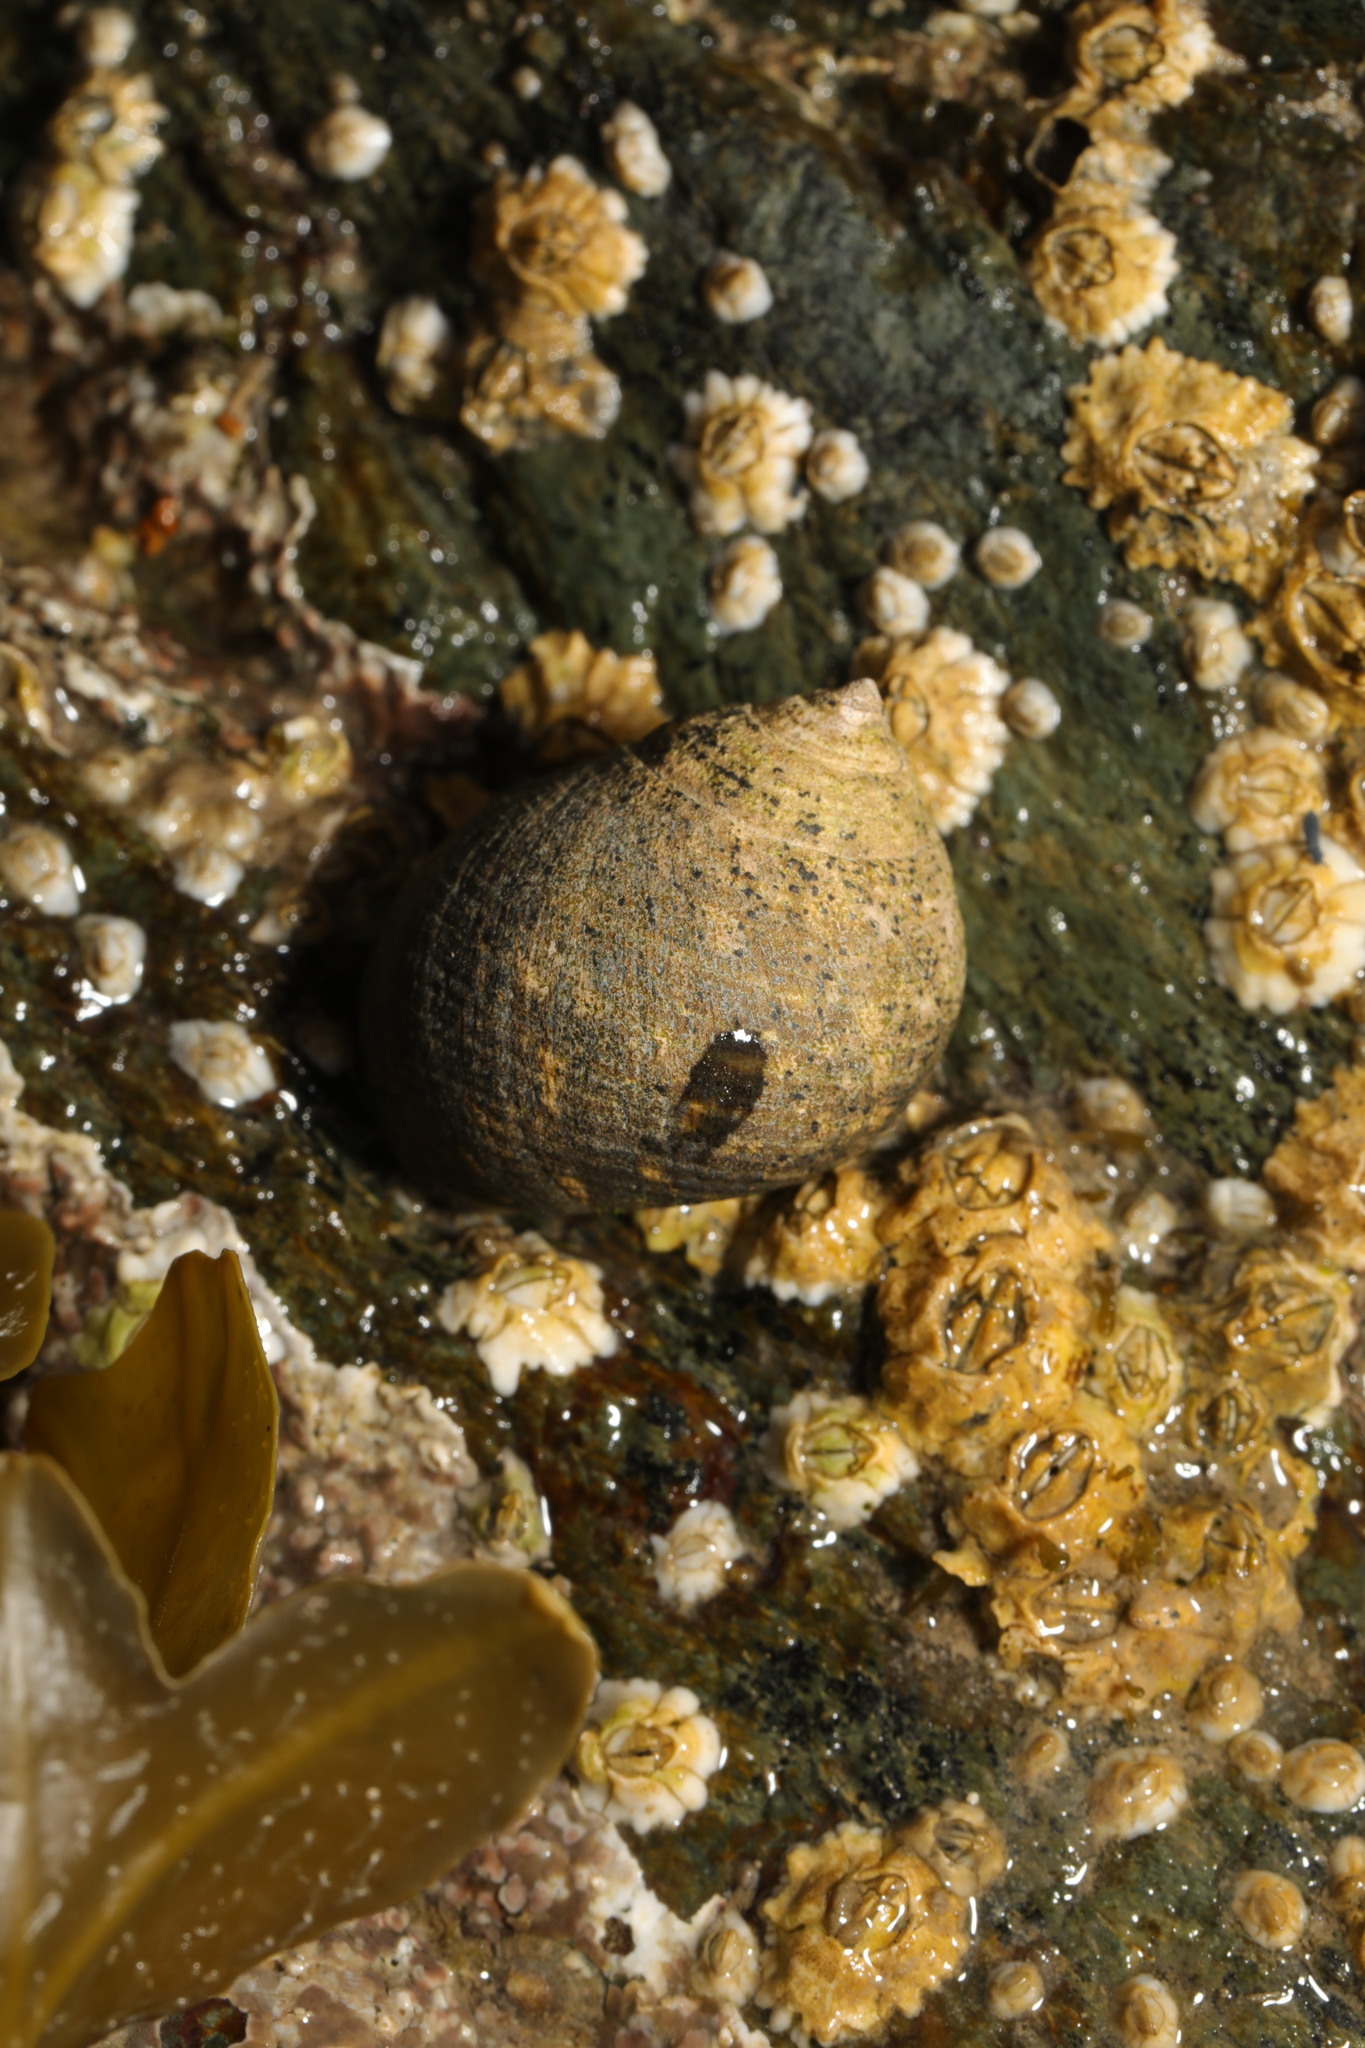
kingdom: Animalia
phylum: Mollusca
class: Gastropoda
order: Littorinimorpha
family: Littorinidae
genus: Littorina
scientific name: Littorina littorea
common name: Common periwinkle
